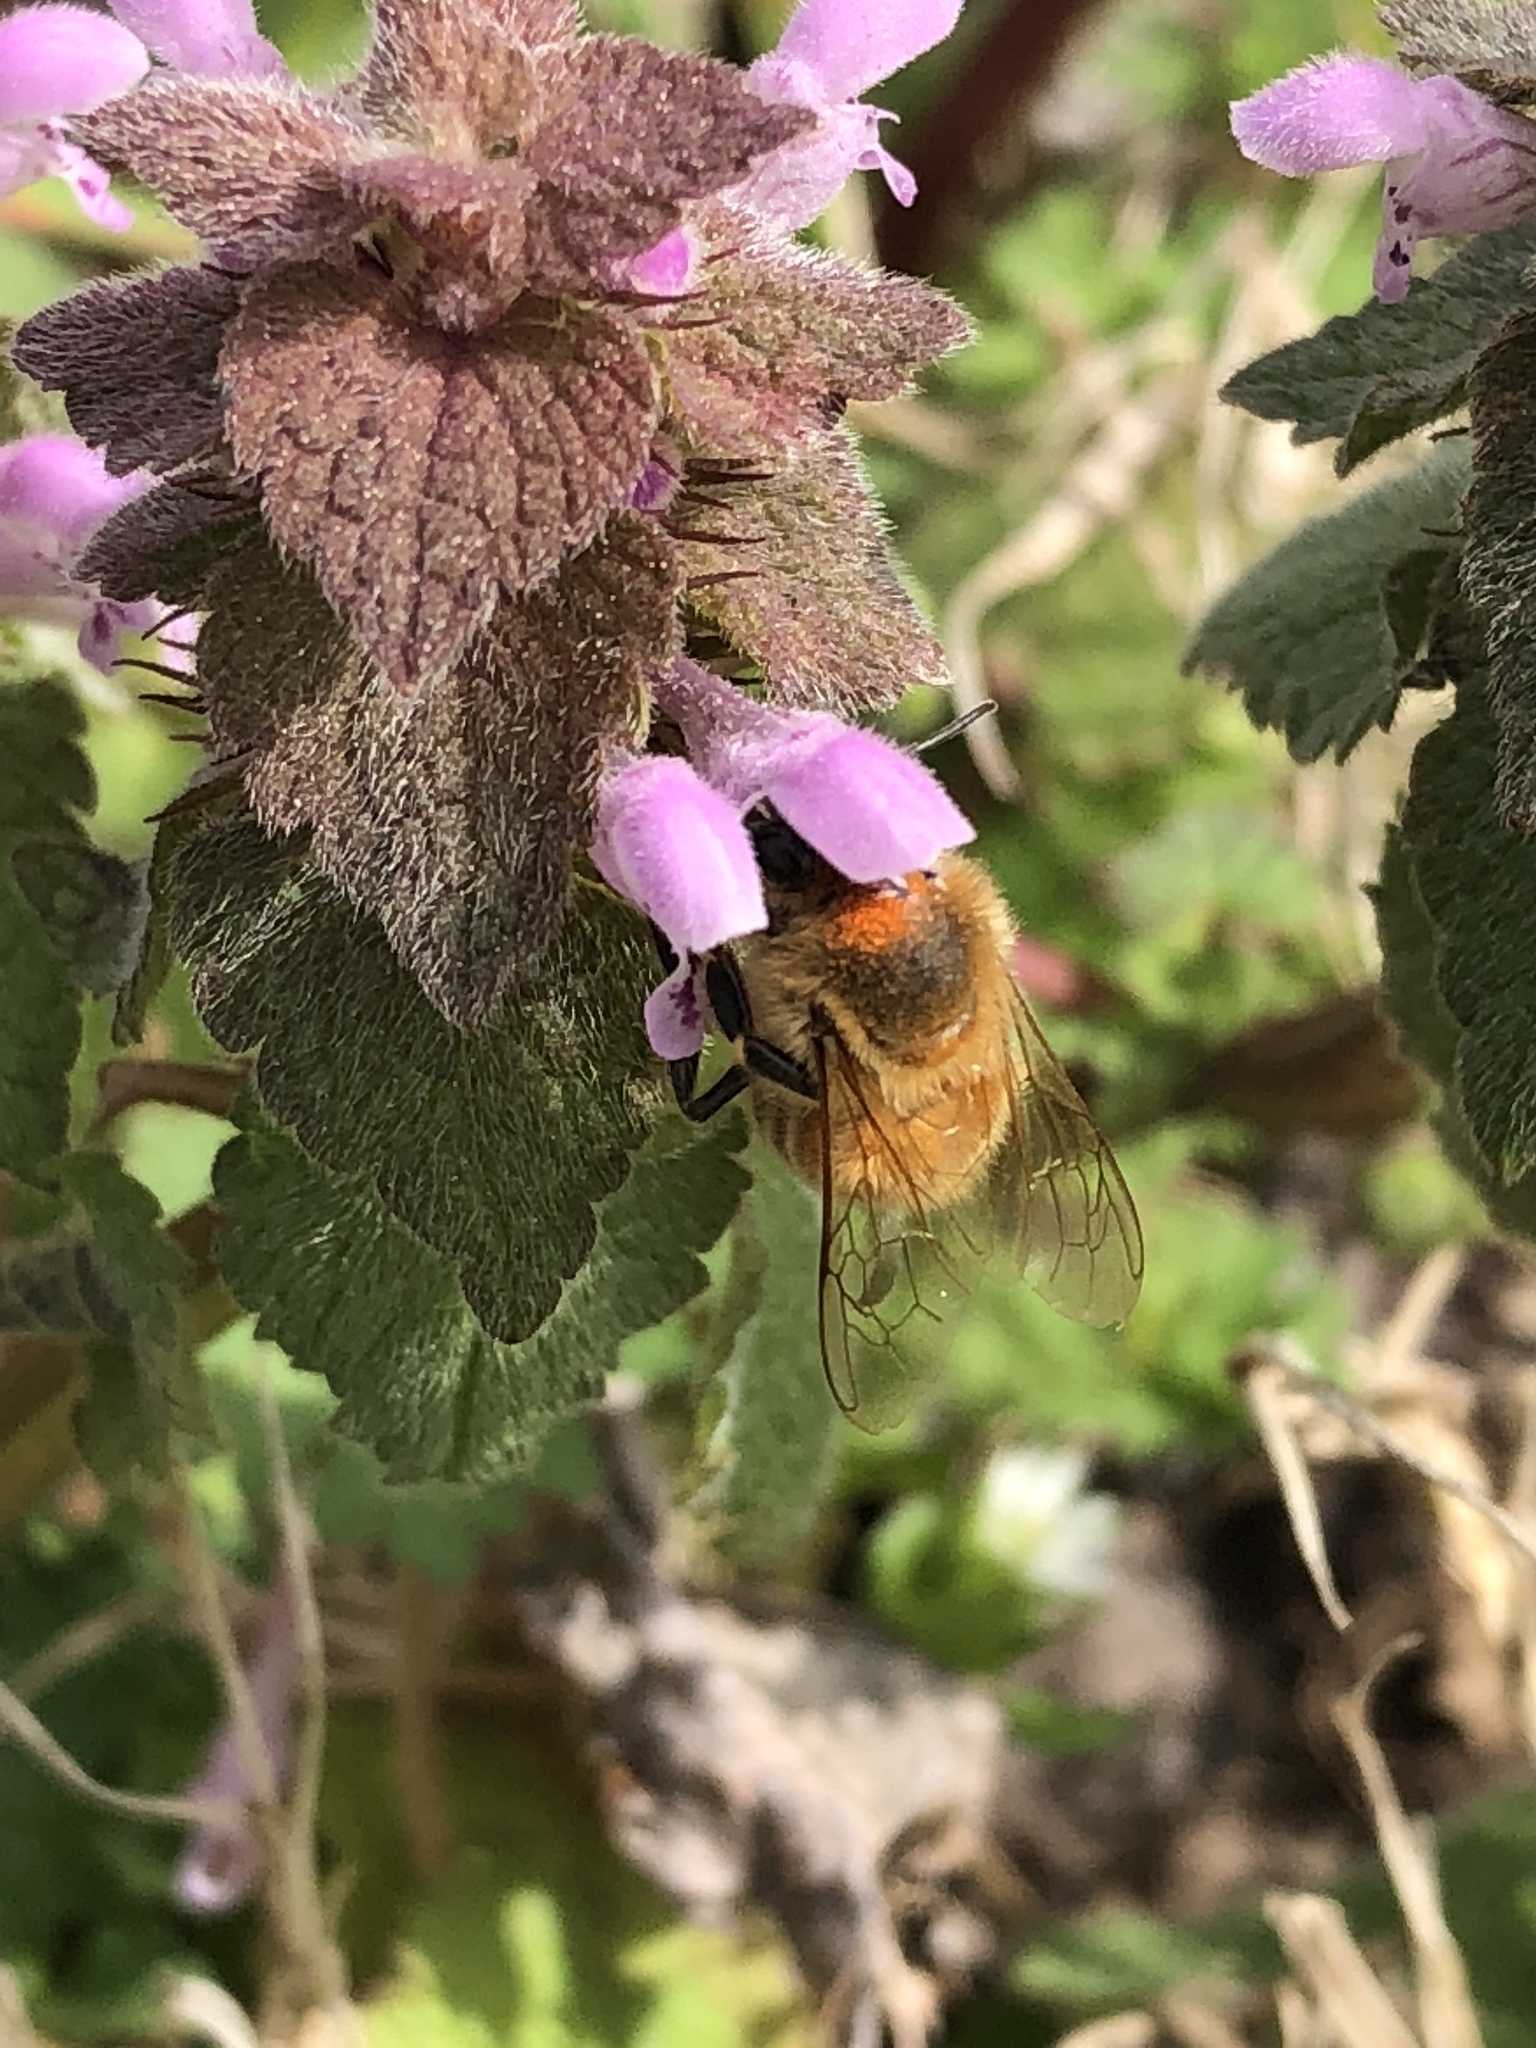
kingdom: Animalia
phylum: Arthropoda
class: Insecta
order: Hymenoptera
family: Apidae
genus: Apis
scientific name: Apis mellifera
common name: Honey bee
